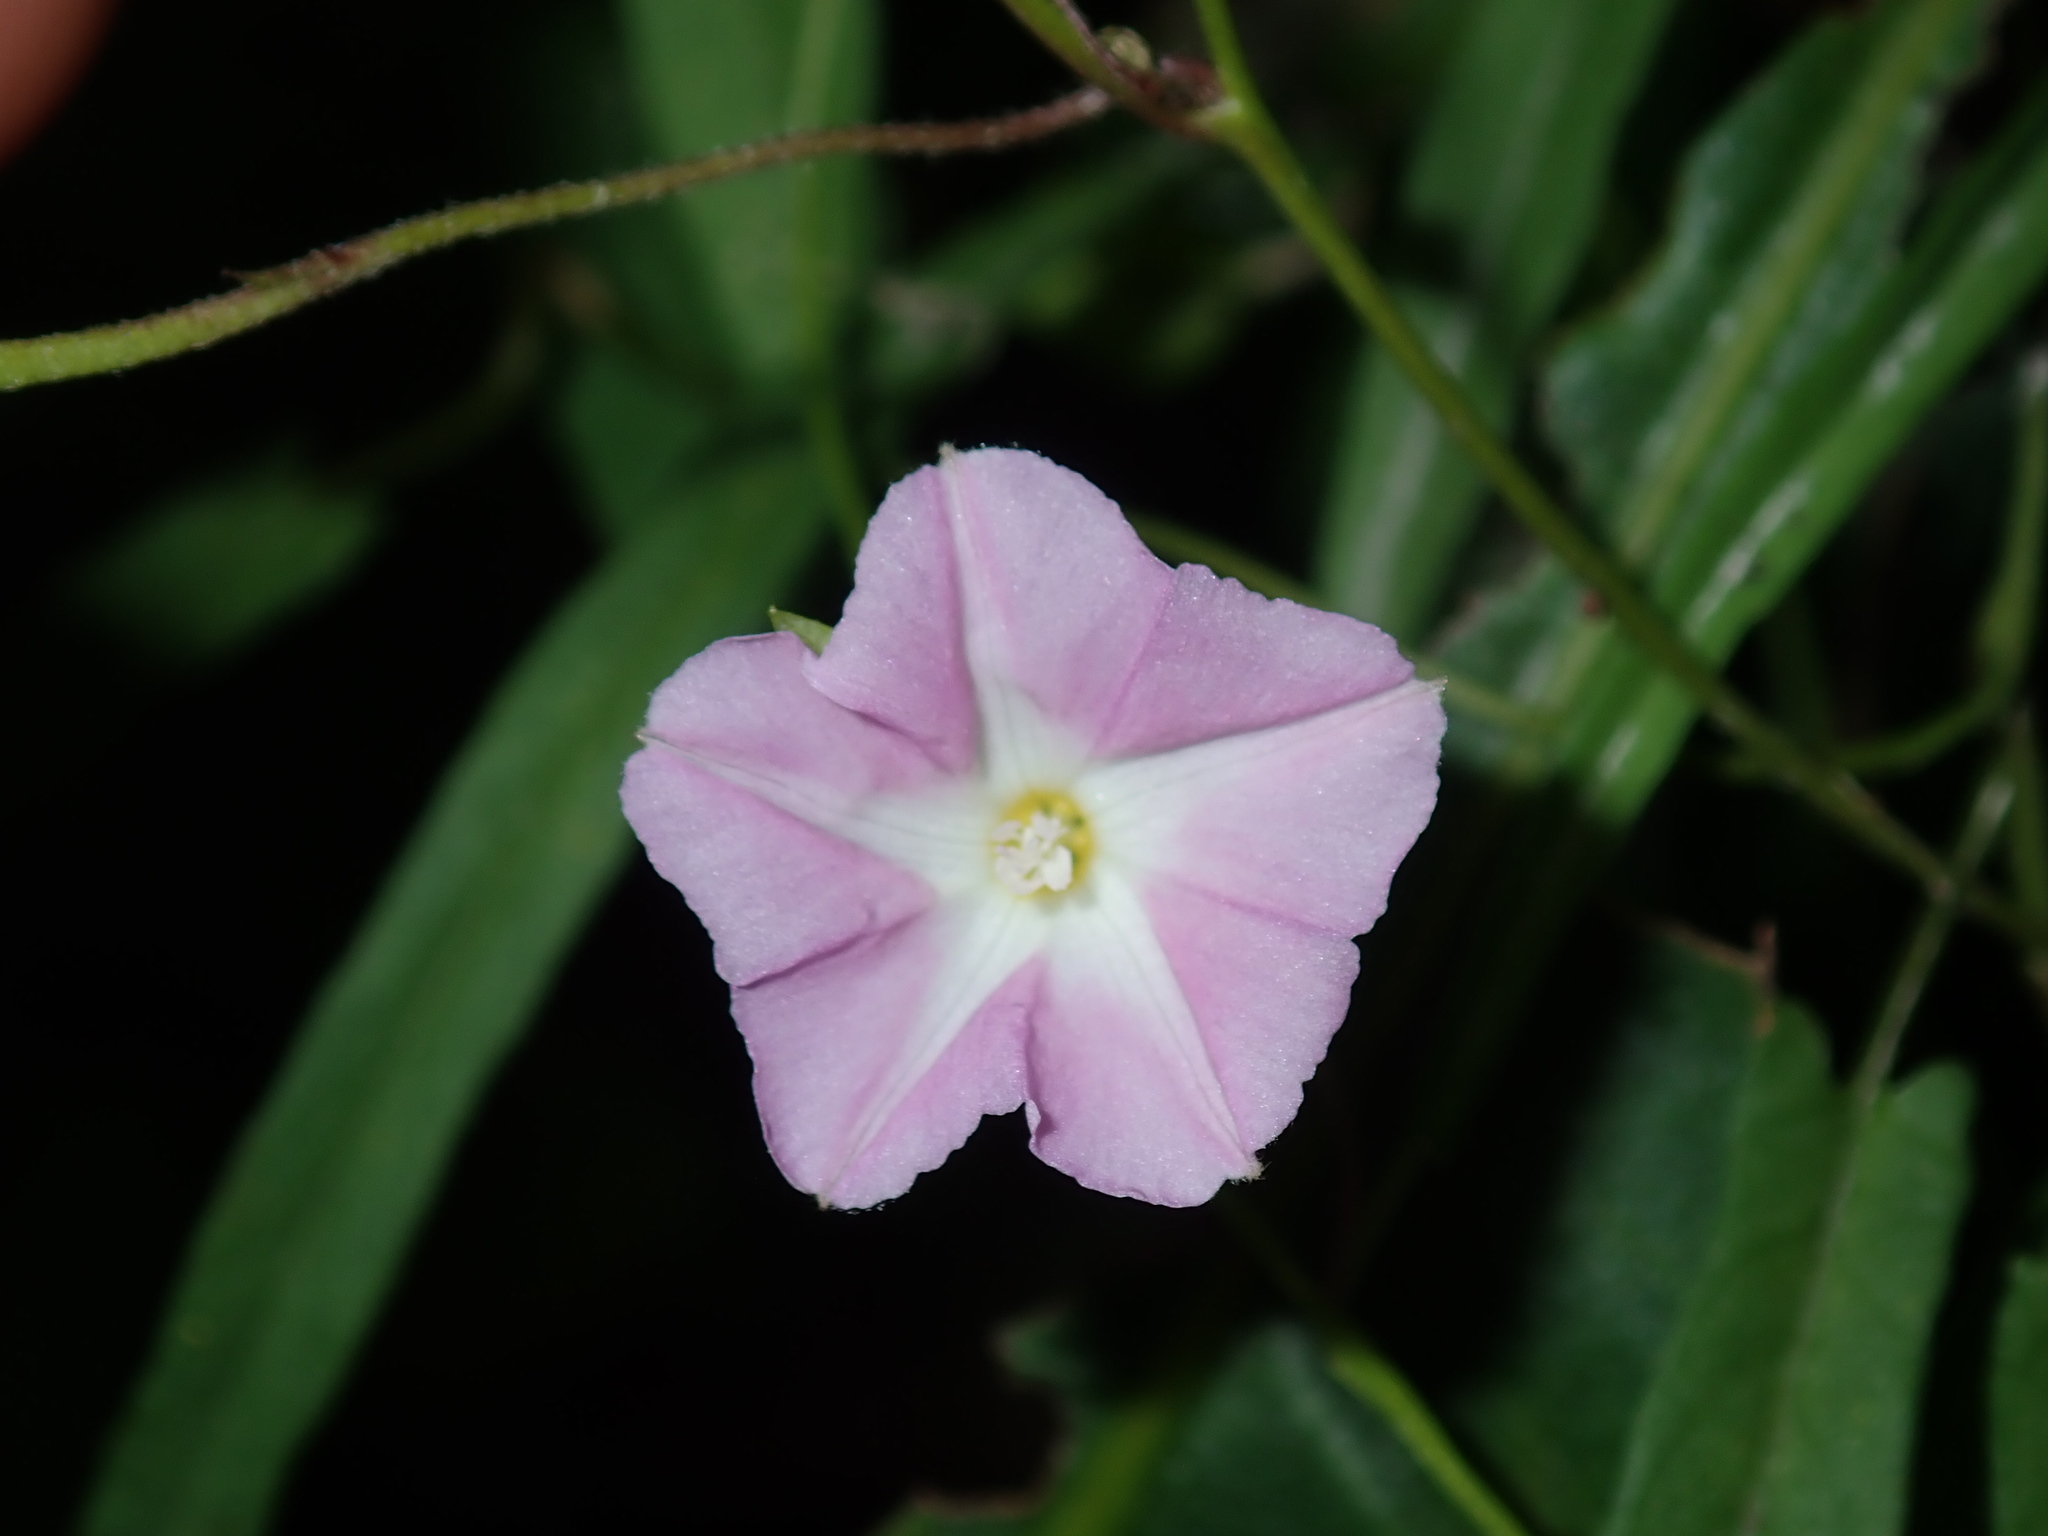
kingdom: Plantae
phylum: Tracheophyta
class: Magnoliopsida
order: Solanales
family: Convolvulaceae
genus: Polymeria
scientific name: Polymeria calycina
